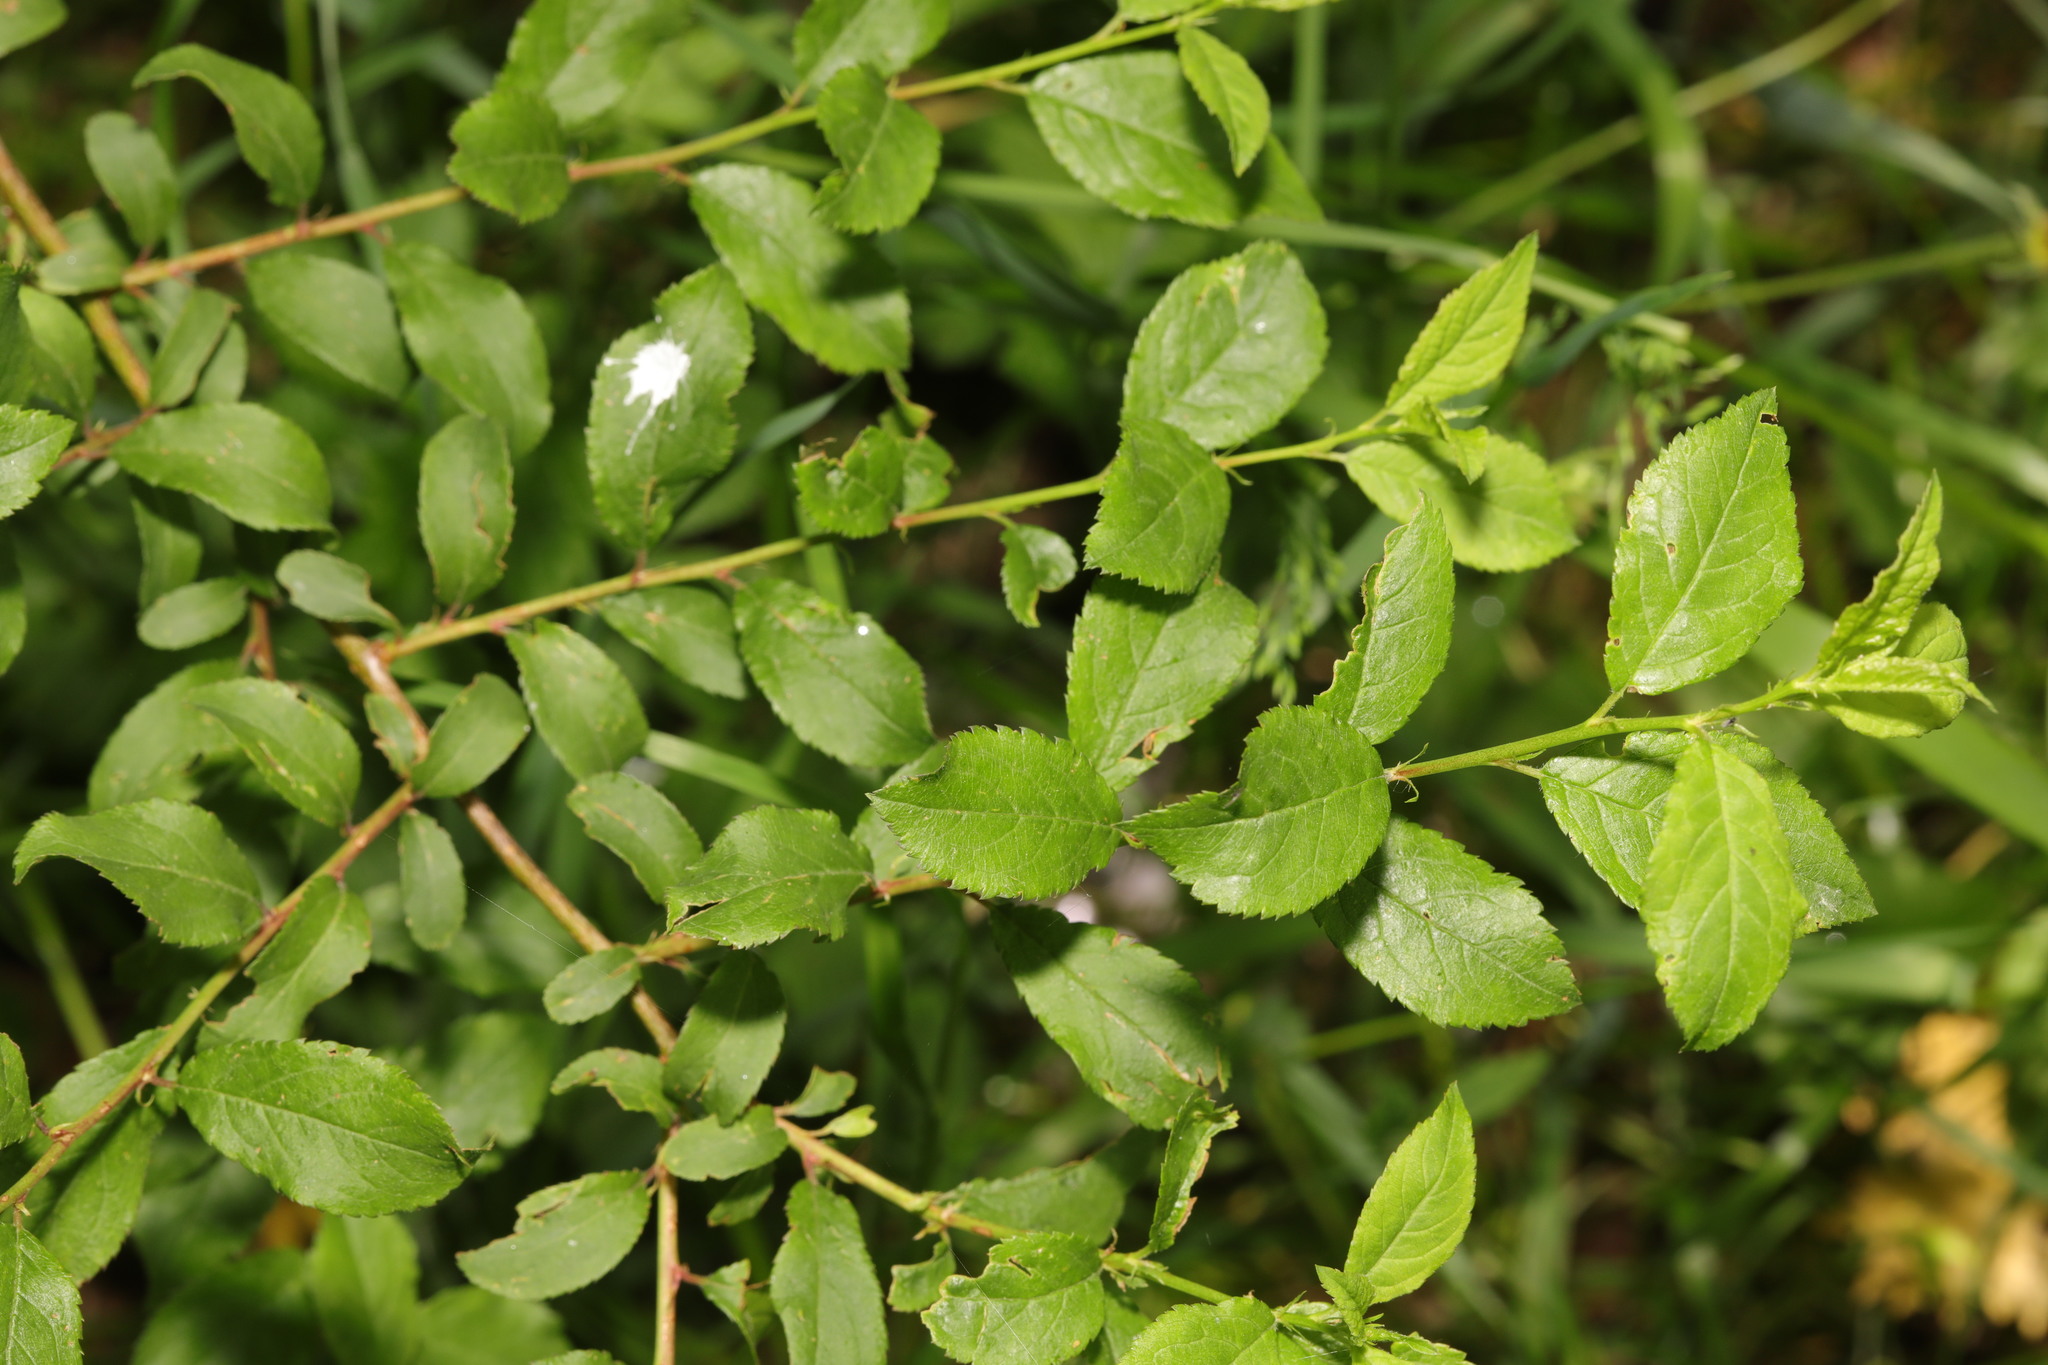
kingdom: Plantae
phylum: Tracheophyta
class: Magnoliopsida
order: Rosales
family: Rosaceae
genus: Prunus
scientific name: Prunus spinosa
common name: Blackthorn
